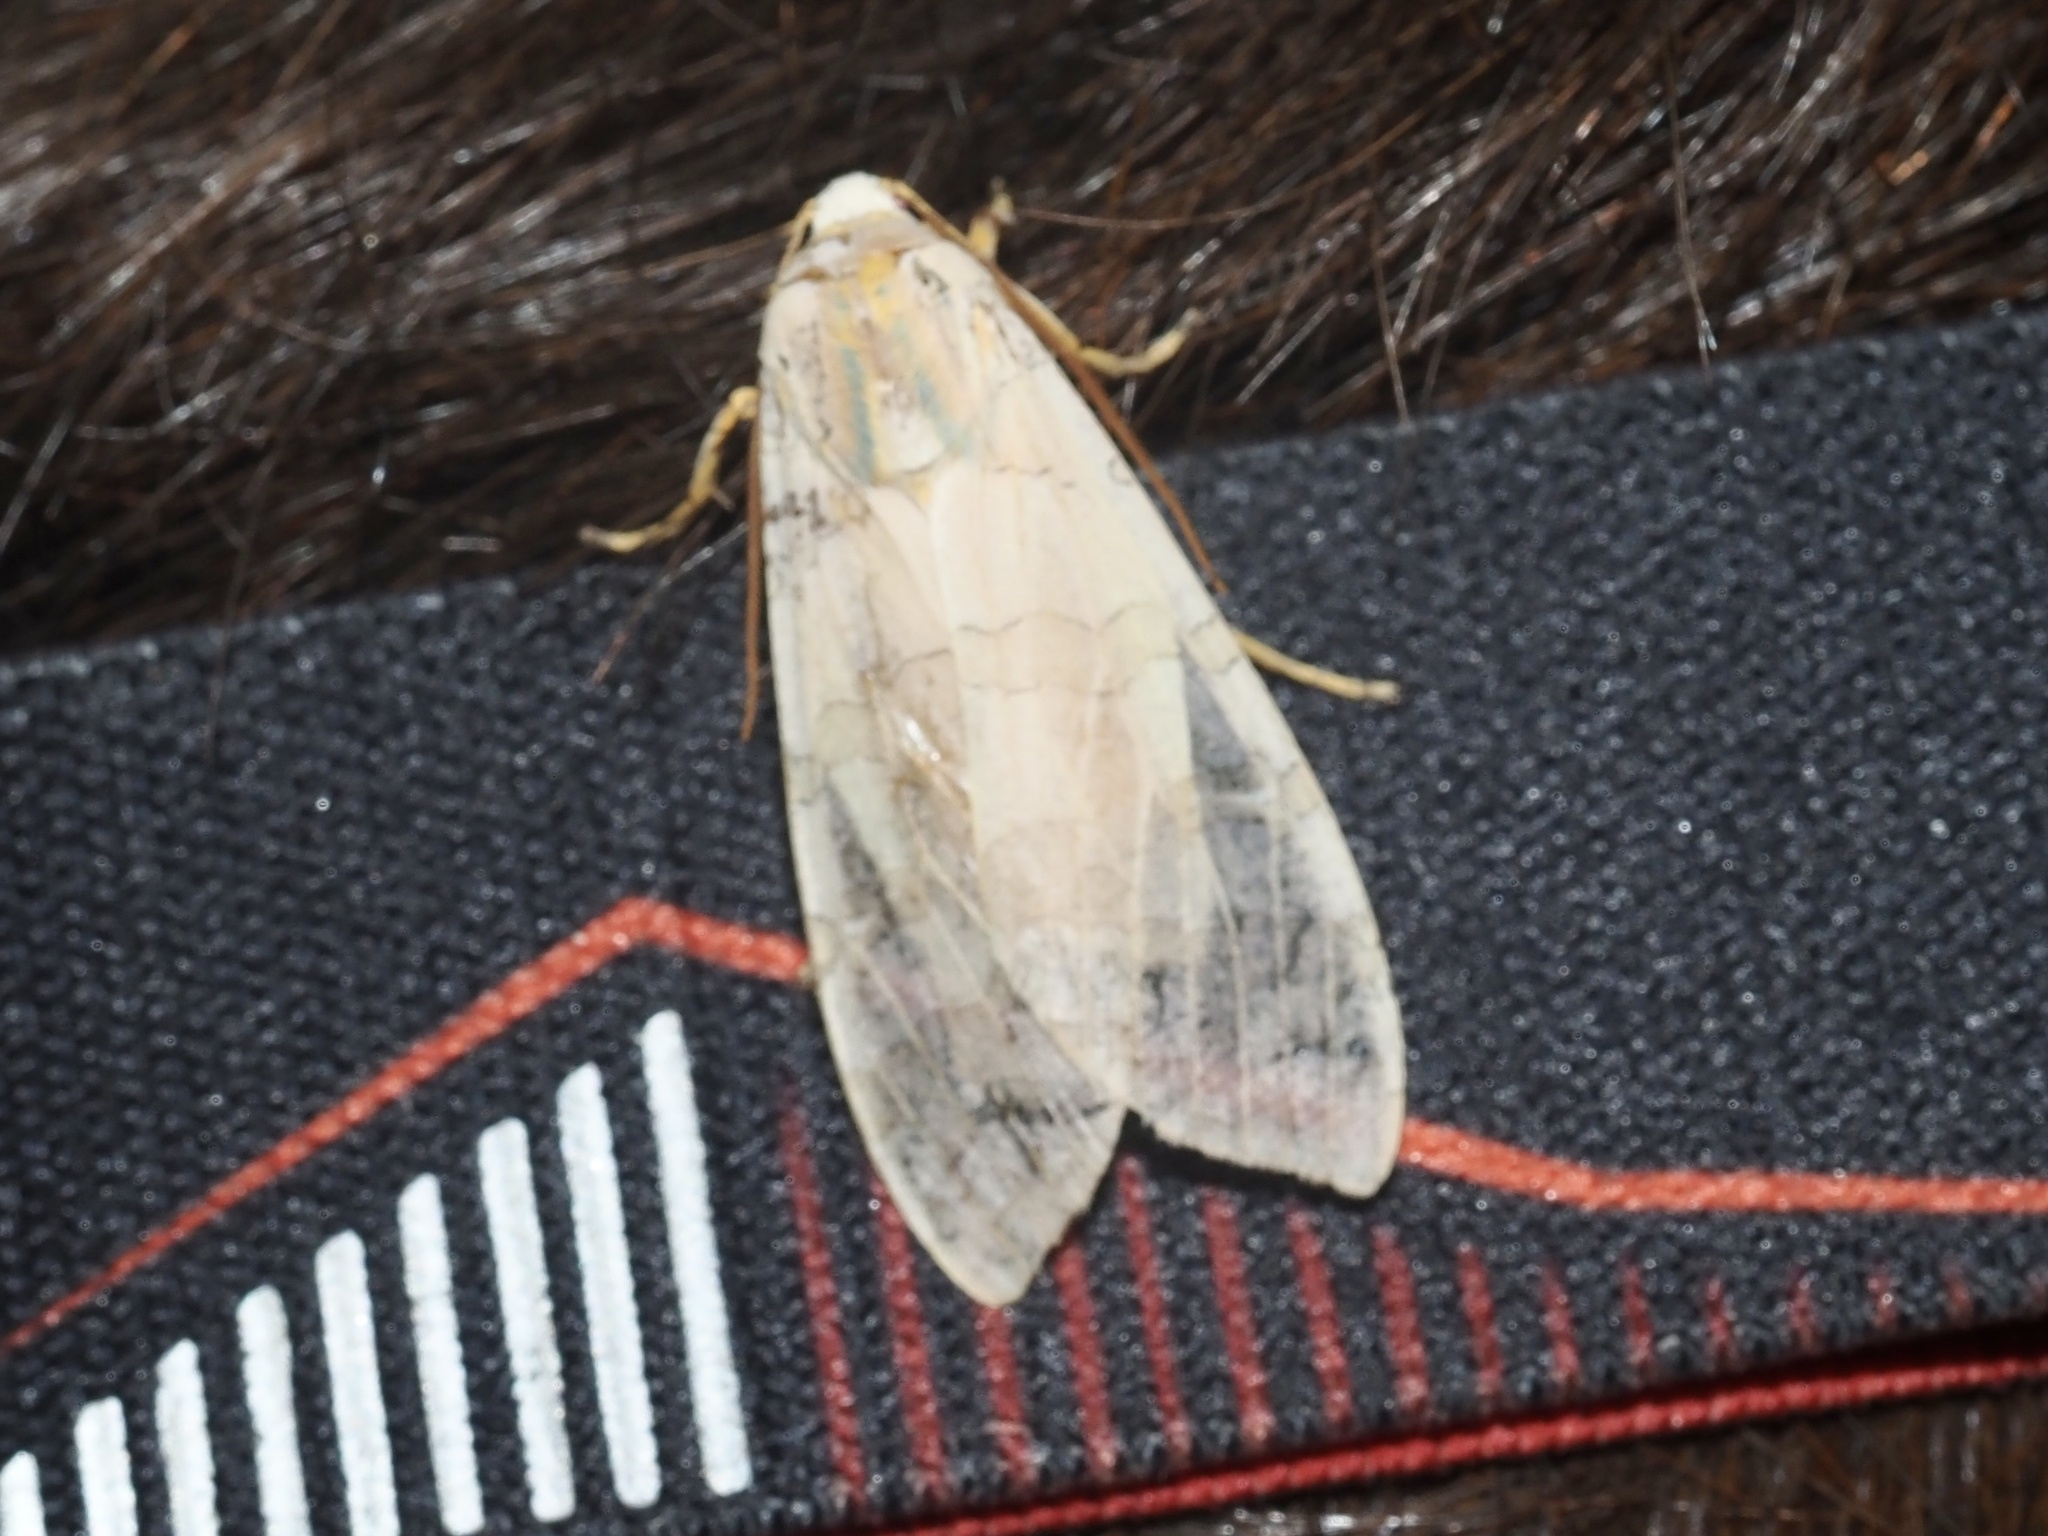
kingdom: Animalia
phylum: Arthropoda
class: Insecta
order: Lepidoptera
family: Erebidae
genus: Halysidota
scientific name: Halysidota
